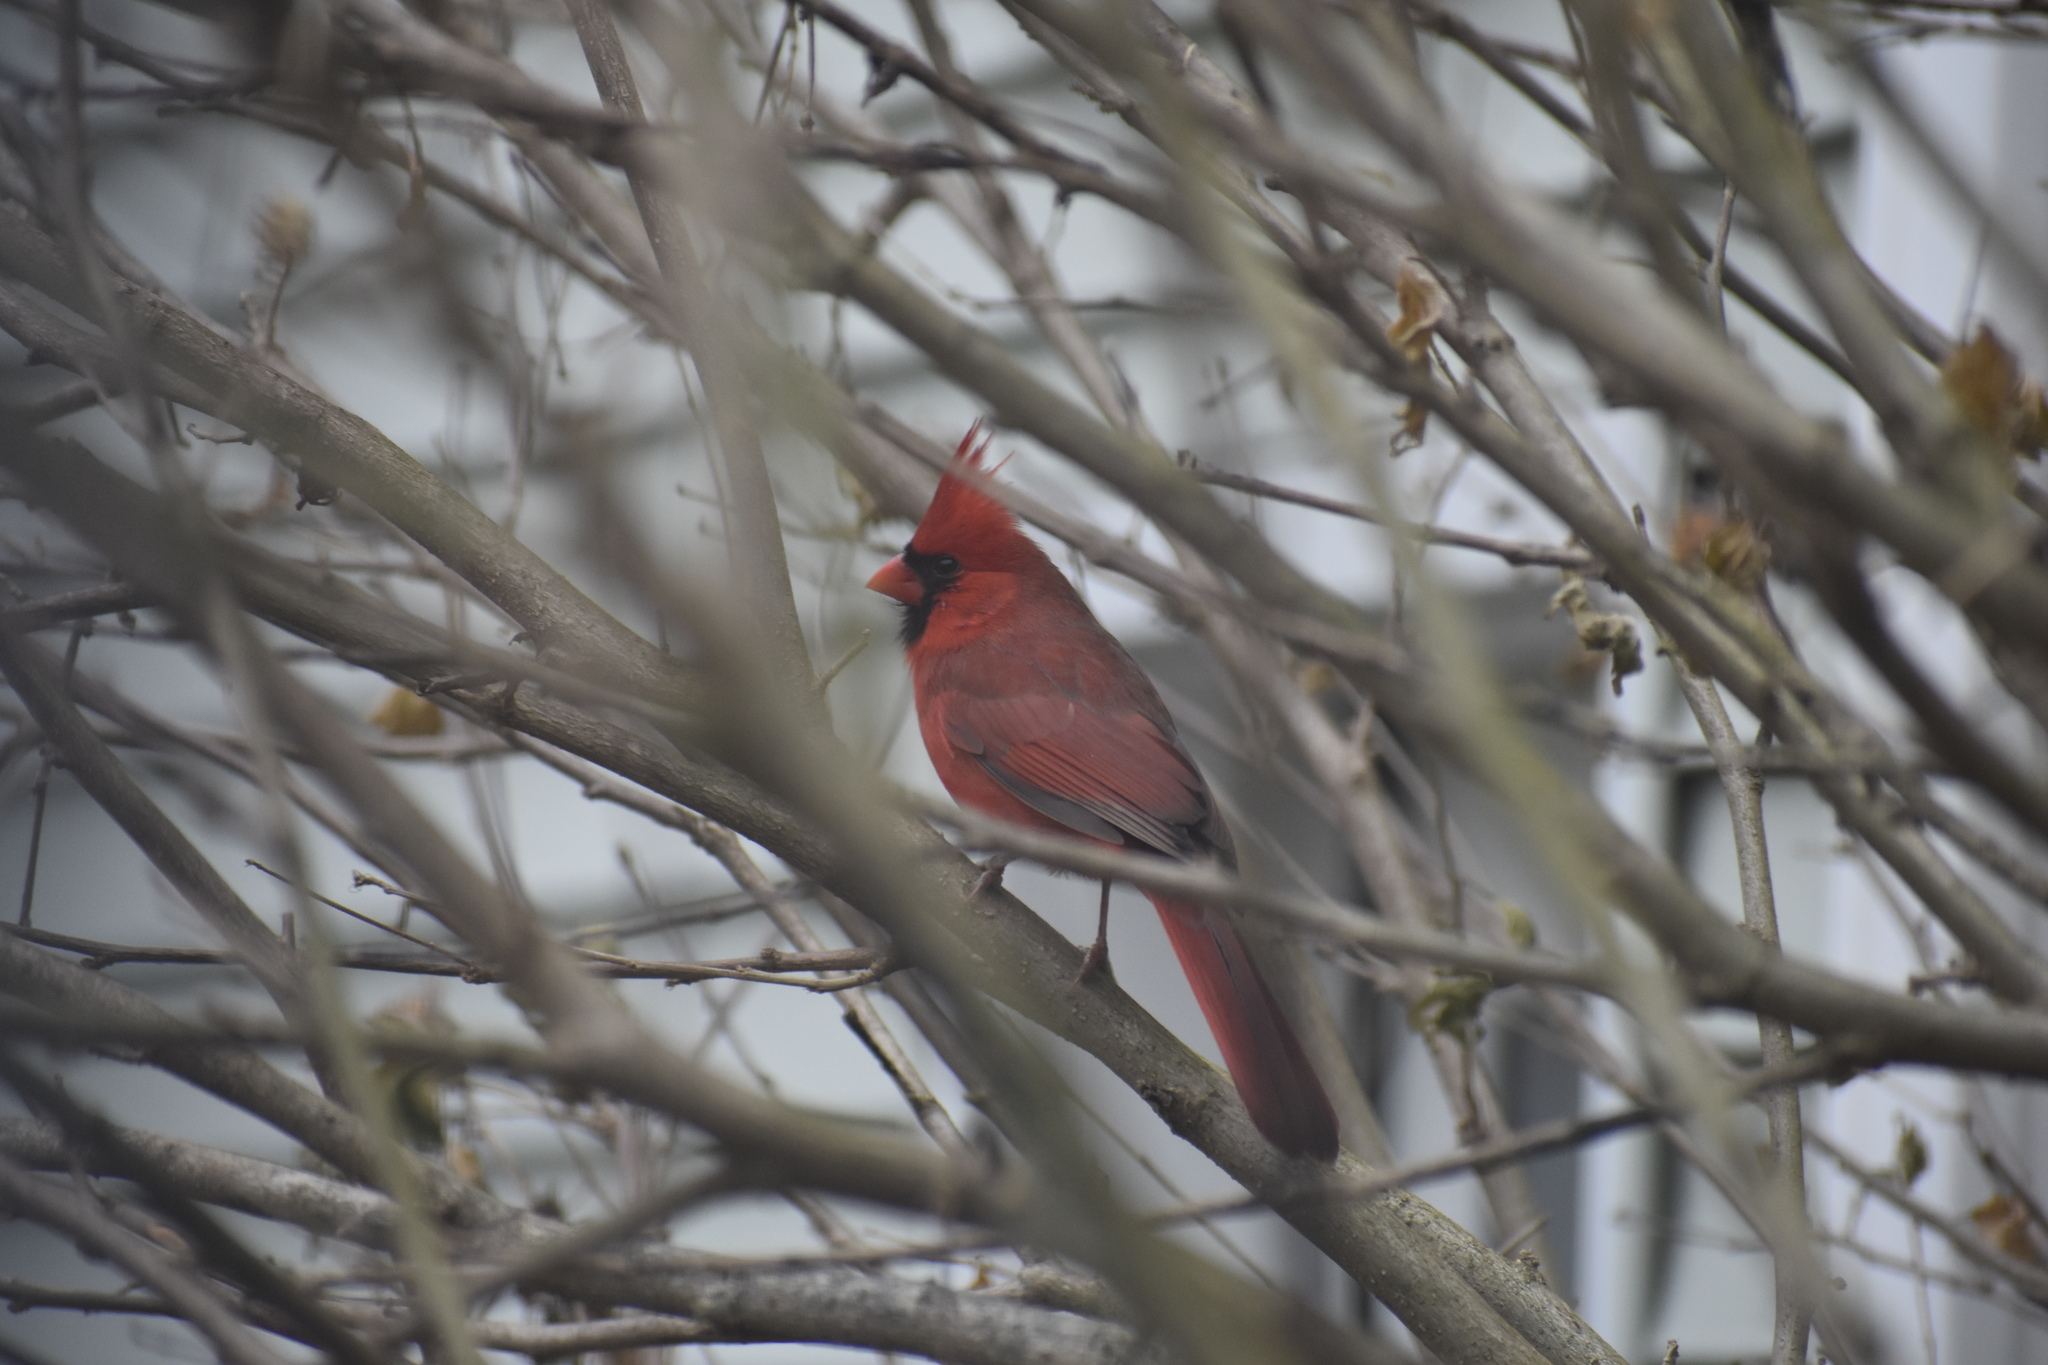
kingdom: Animalia
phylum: Chordata
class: Aves
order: Passeriformes
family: Cardinalidae
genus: Cardinalis
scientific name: Cardinalis cardinalis
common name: Northern cardinal
